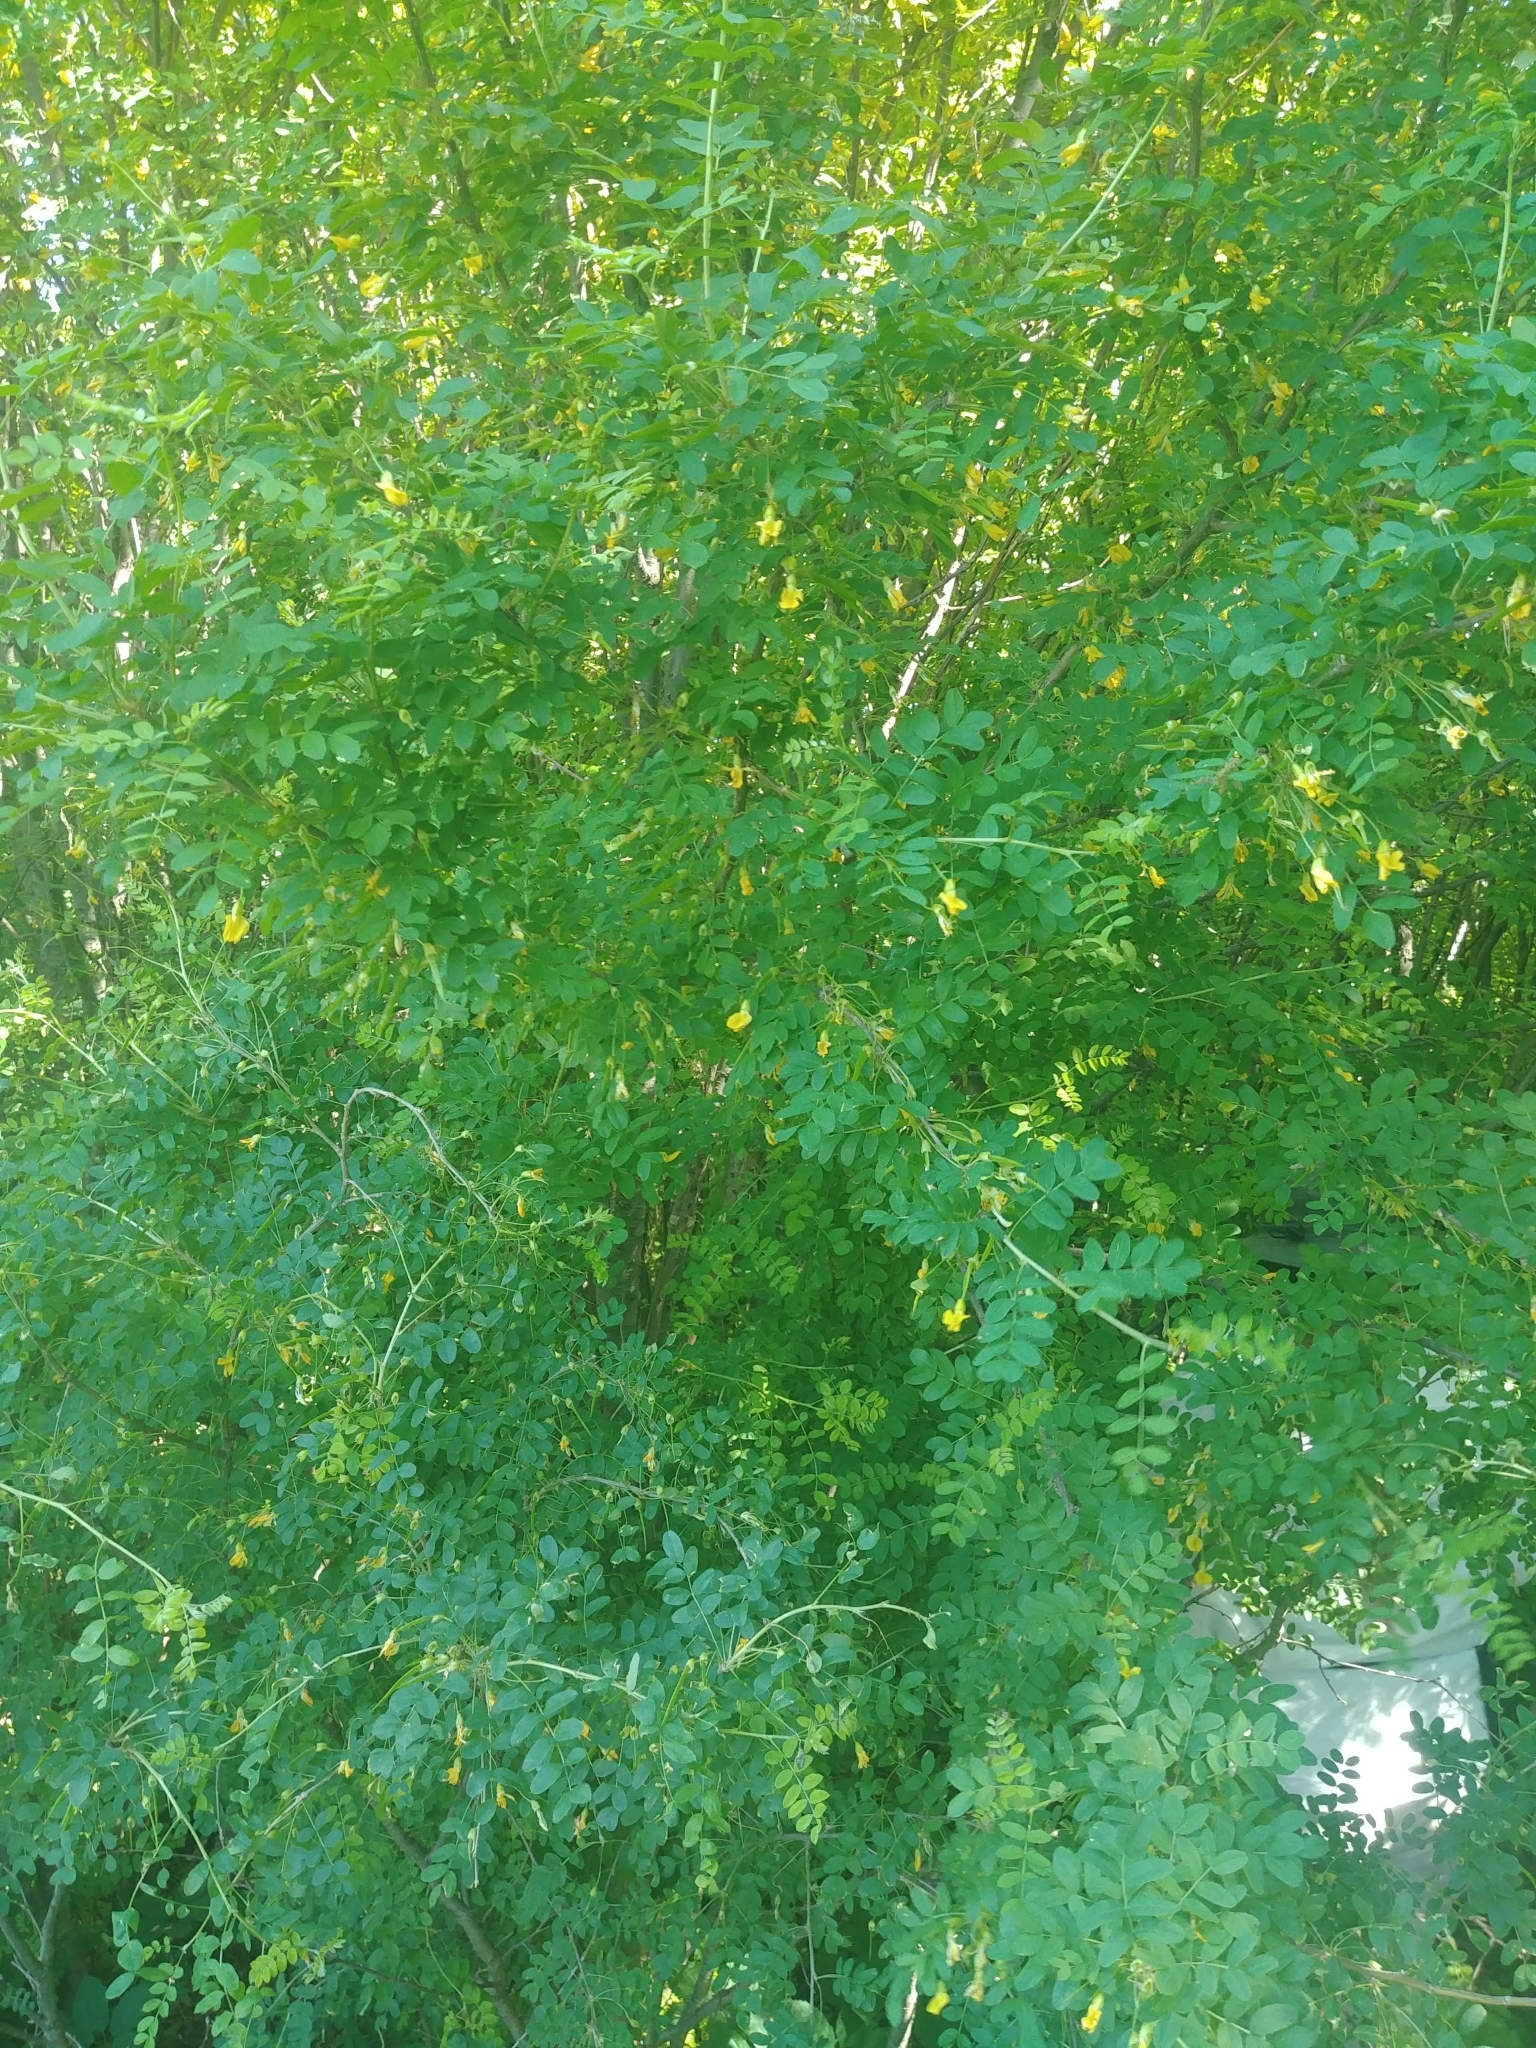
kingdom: Plantae
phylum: Tracheophyta
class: Magnoliopsida
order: Fabales
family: Fabaceae
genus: Caragana
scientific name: Caragana arborescens
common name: Siberian peashrub
